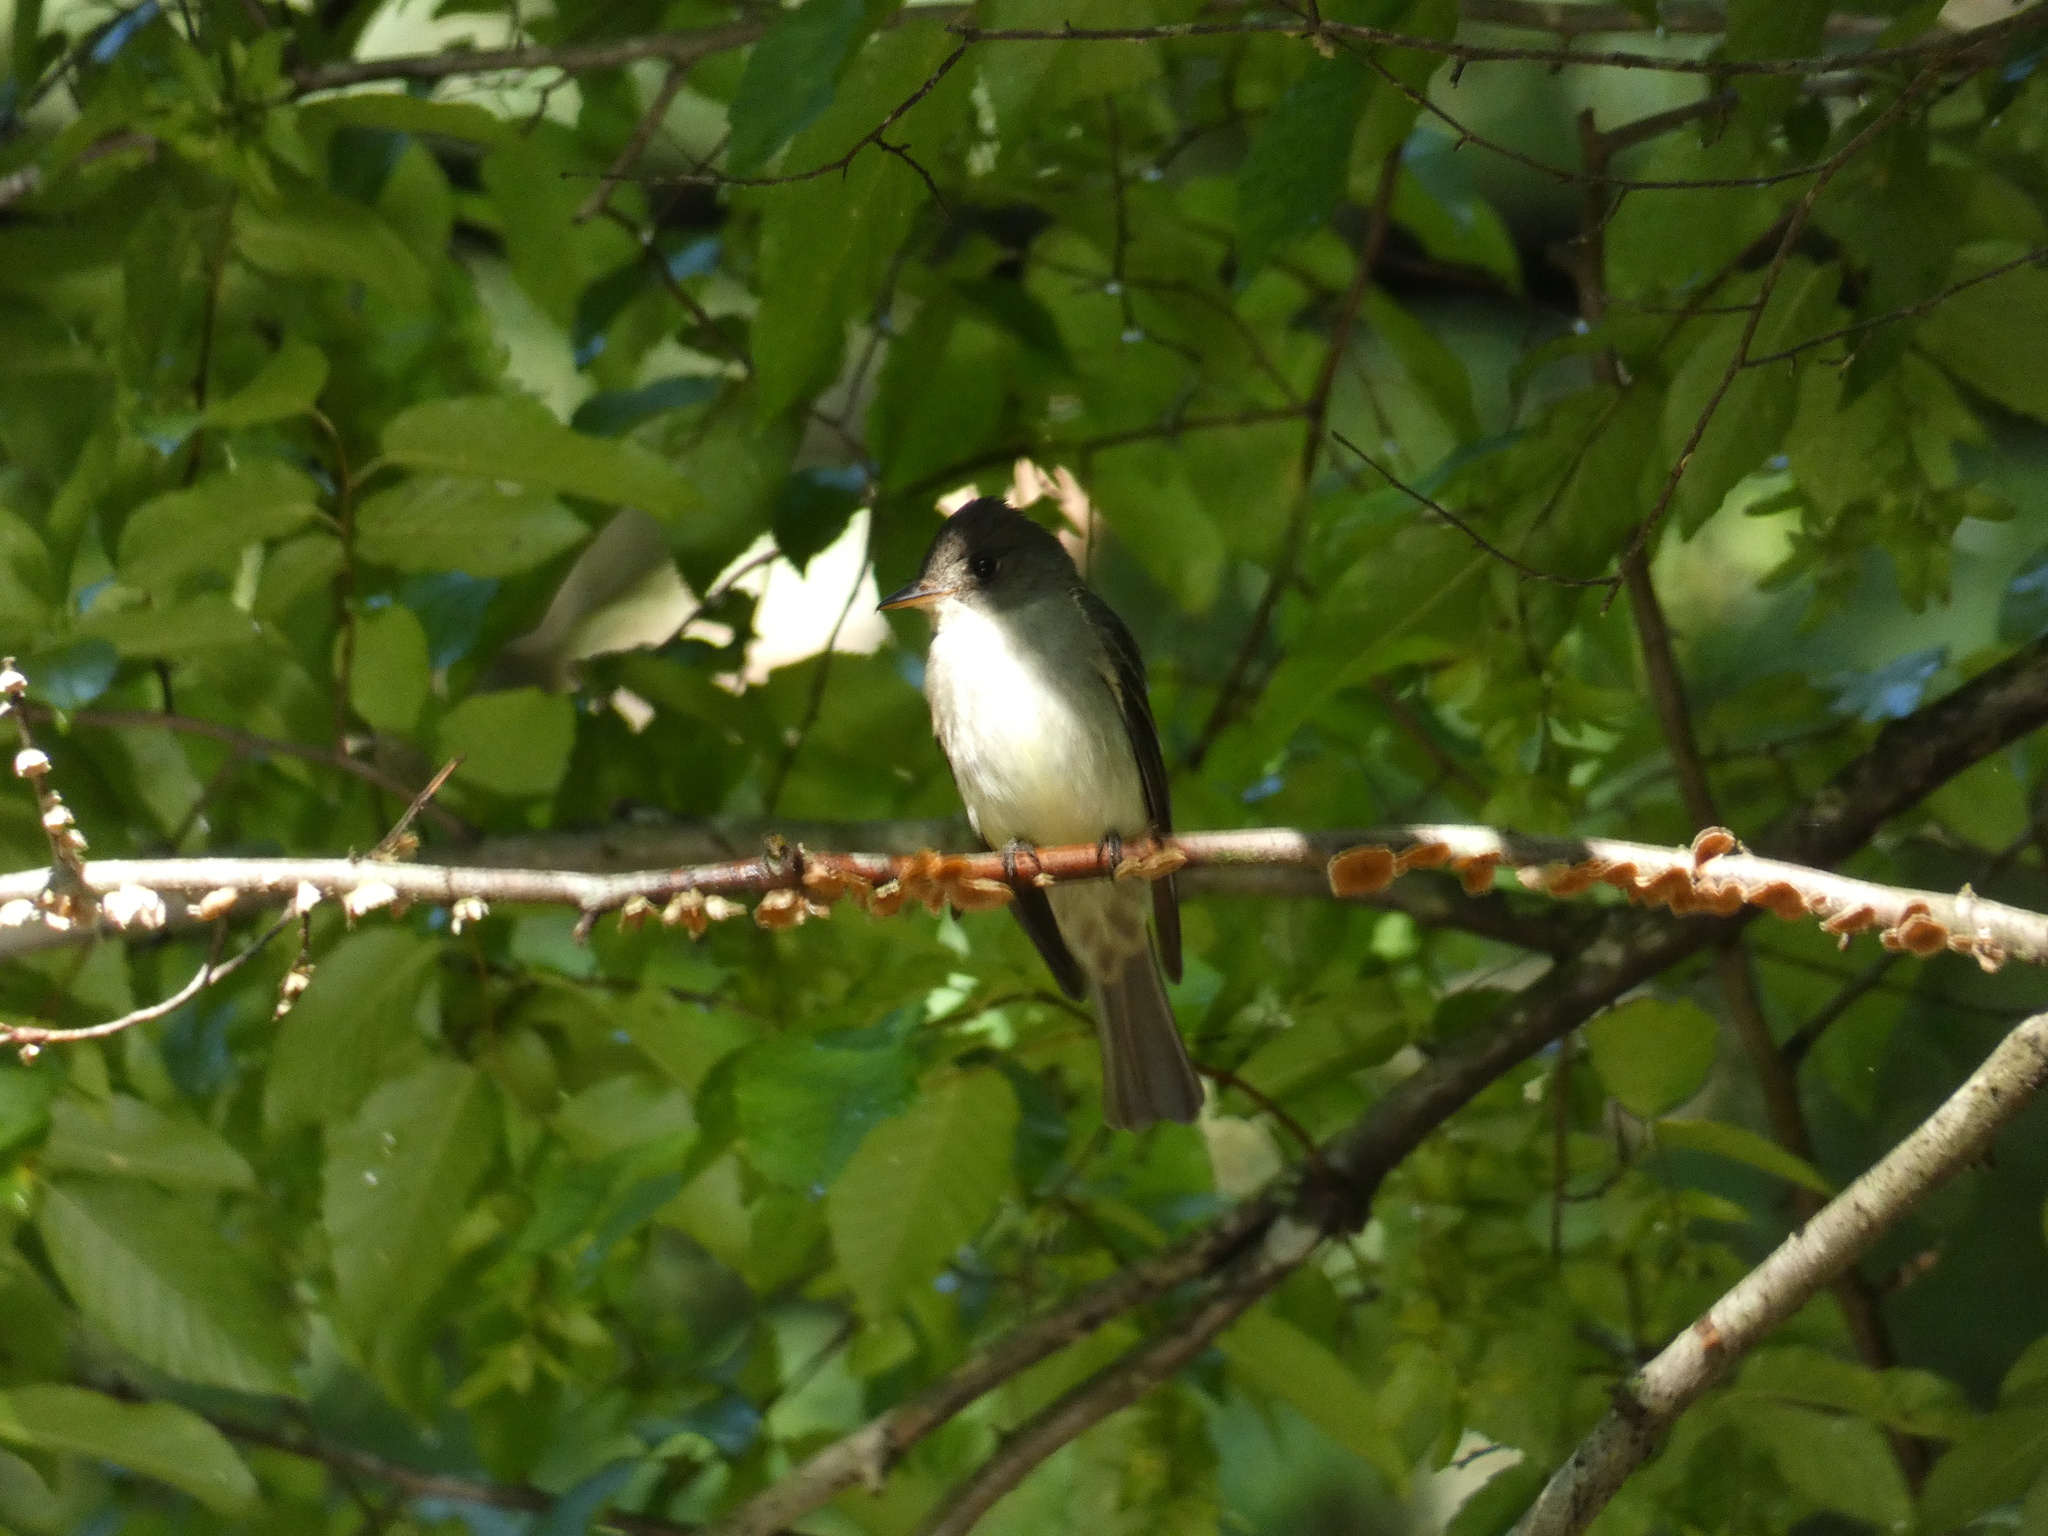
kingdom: Animalia
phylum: Chordata
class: Aves
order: Passeriformes
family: Tyrannidae
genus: Contopus
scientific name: Contopus virens
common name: Eastern wood-pewee
